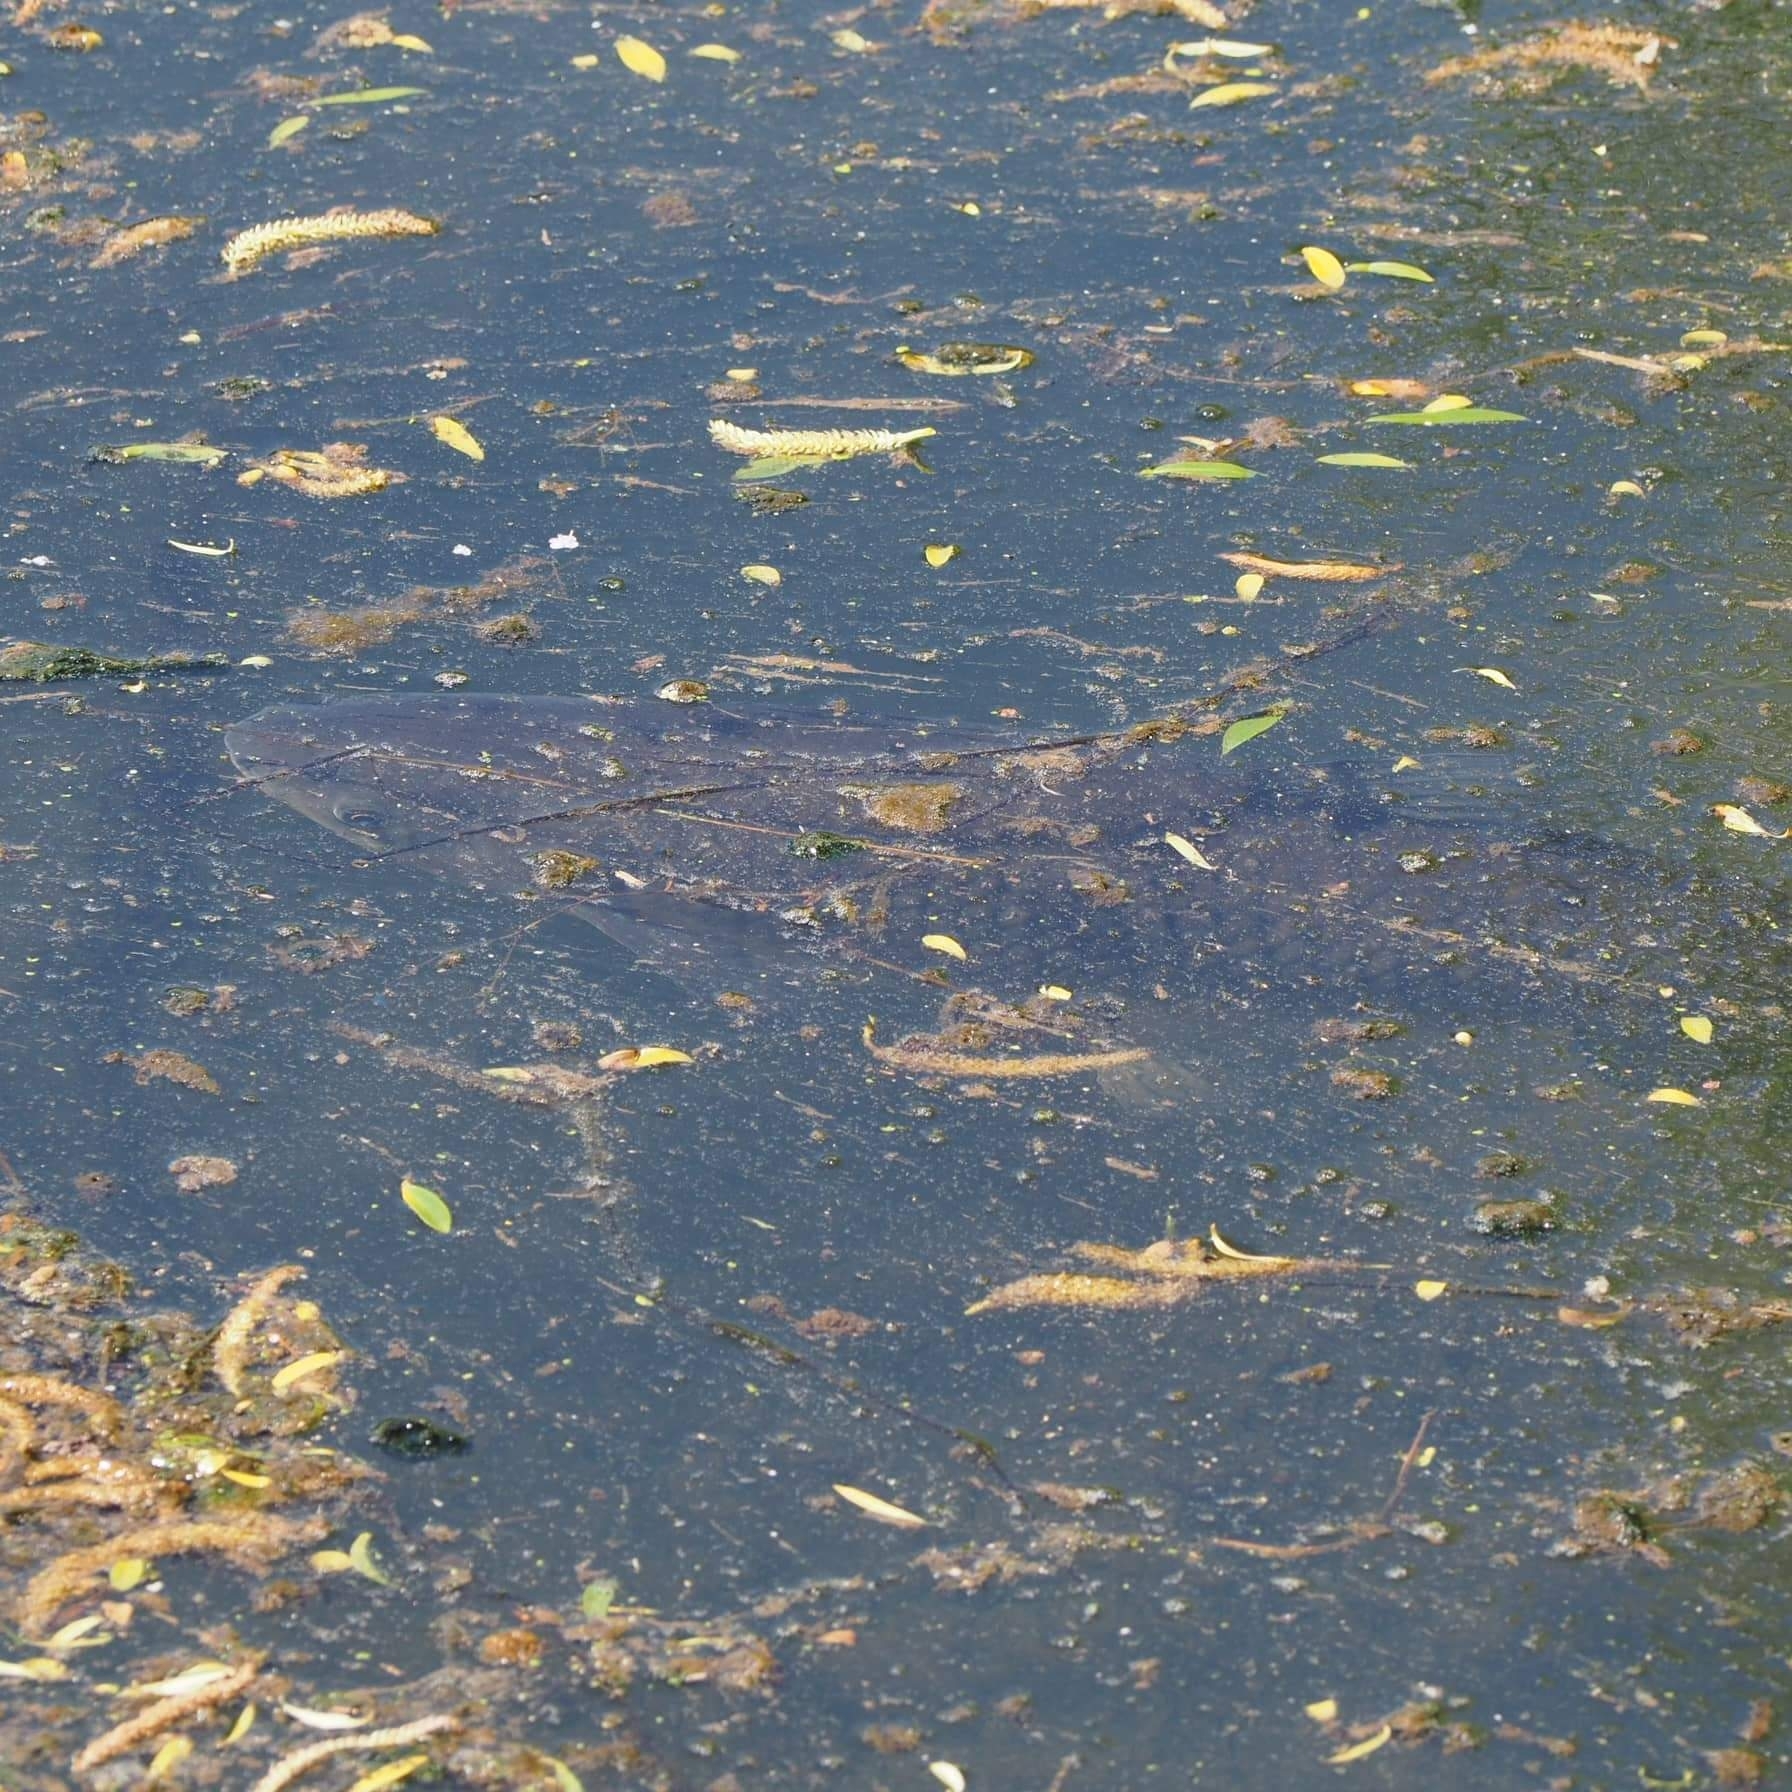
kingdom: Animalia
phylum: Chordata
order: Cypriniformes
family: Cyprinidae
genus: Ctenopharyngodon
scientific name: Ctenopharyngodon idella
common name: Grass carp
